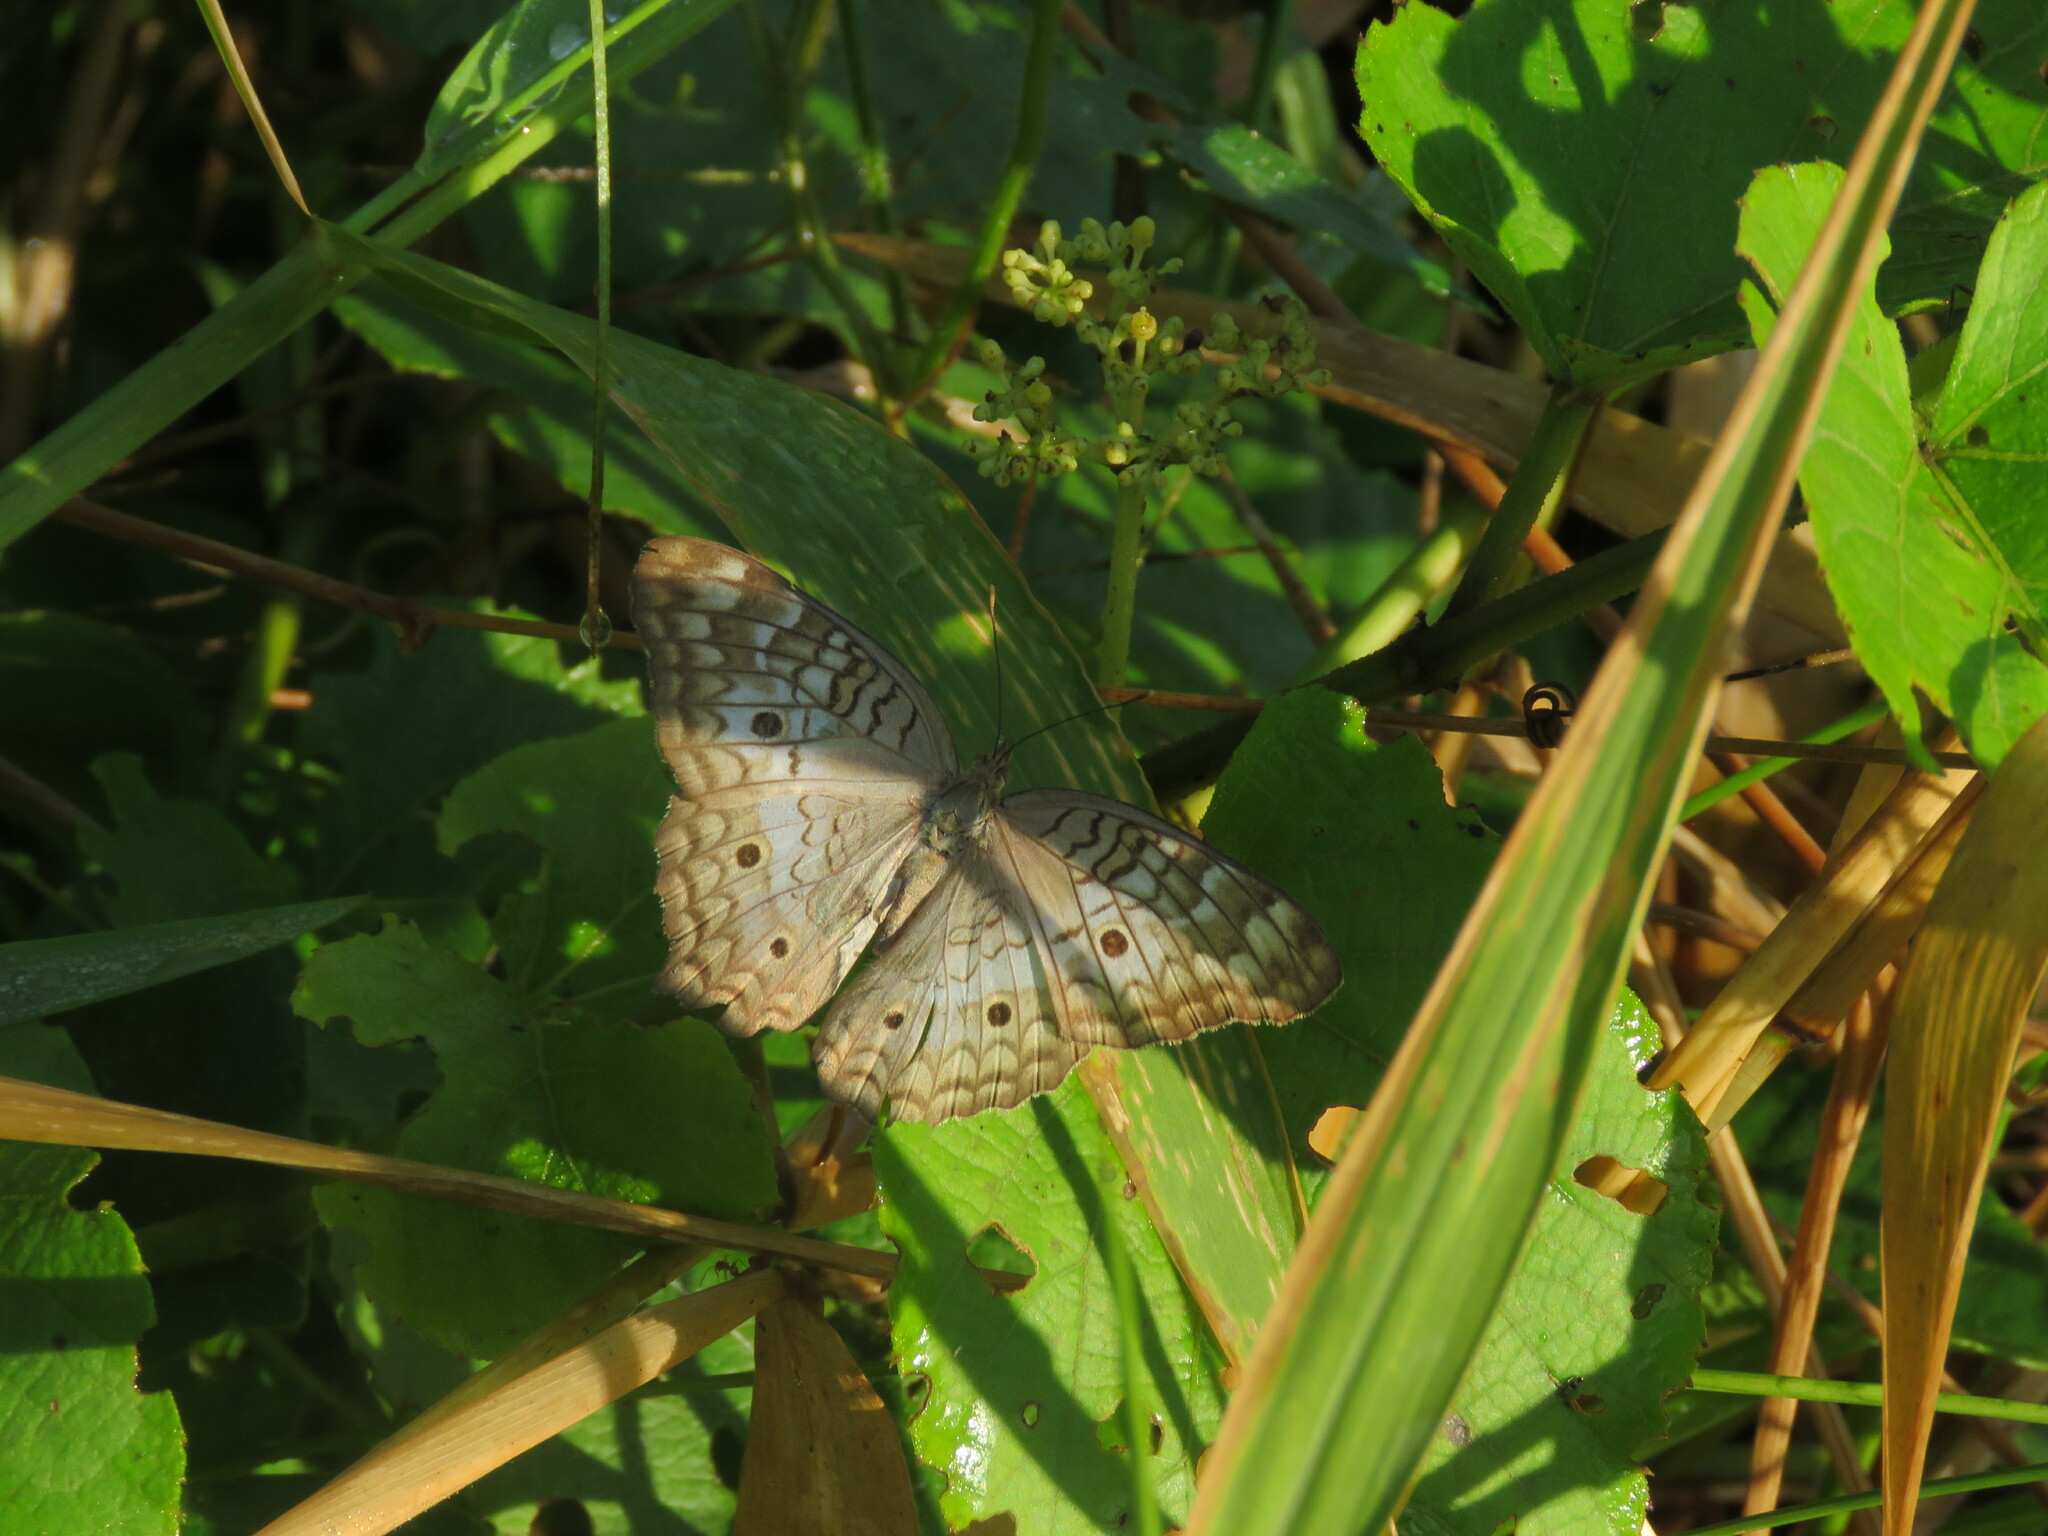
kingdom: Animalia
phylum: Arthropoda
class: Insecta
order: Lepidoptera
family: Nymphalidae
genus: Anartia
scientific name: Anartia jatrophae
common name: White peacock
